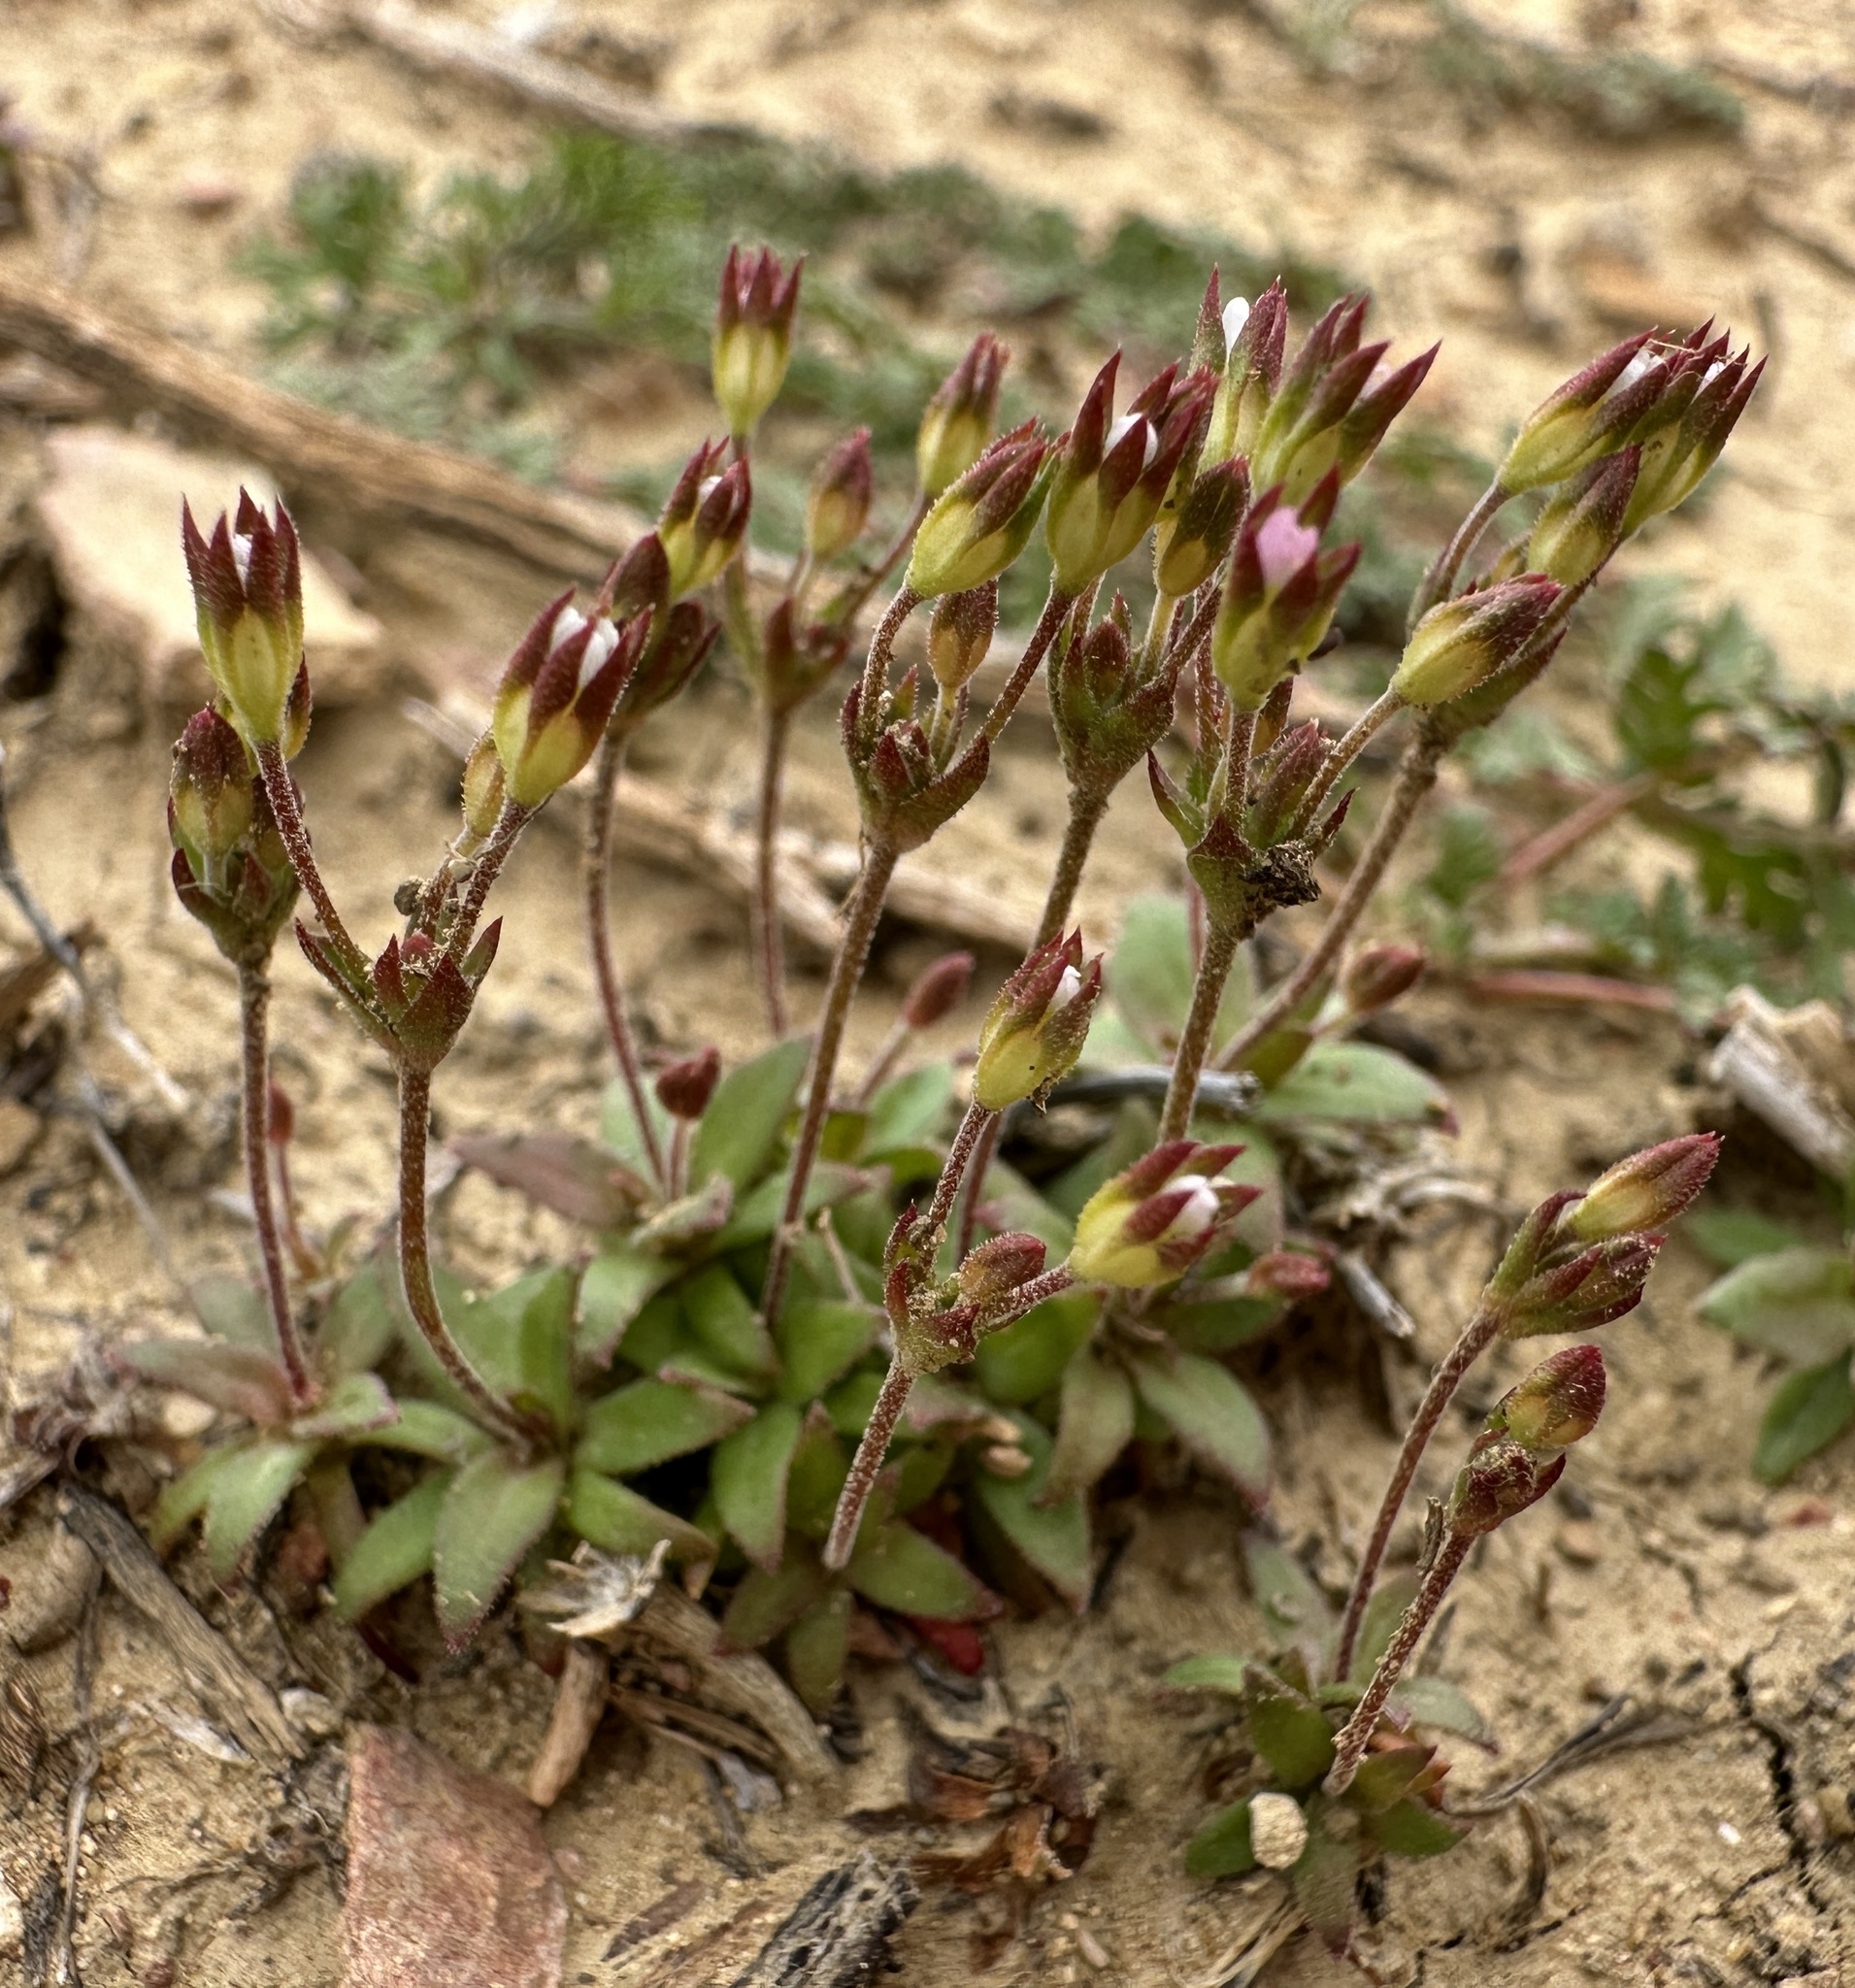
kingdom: Plantae
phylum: Tracheophyta
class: Magnoliopsida
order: Ericales
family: Primulaceae
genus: Androsace
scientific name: Androsace elongata
